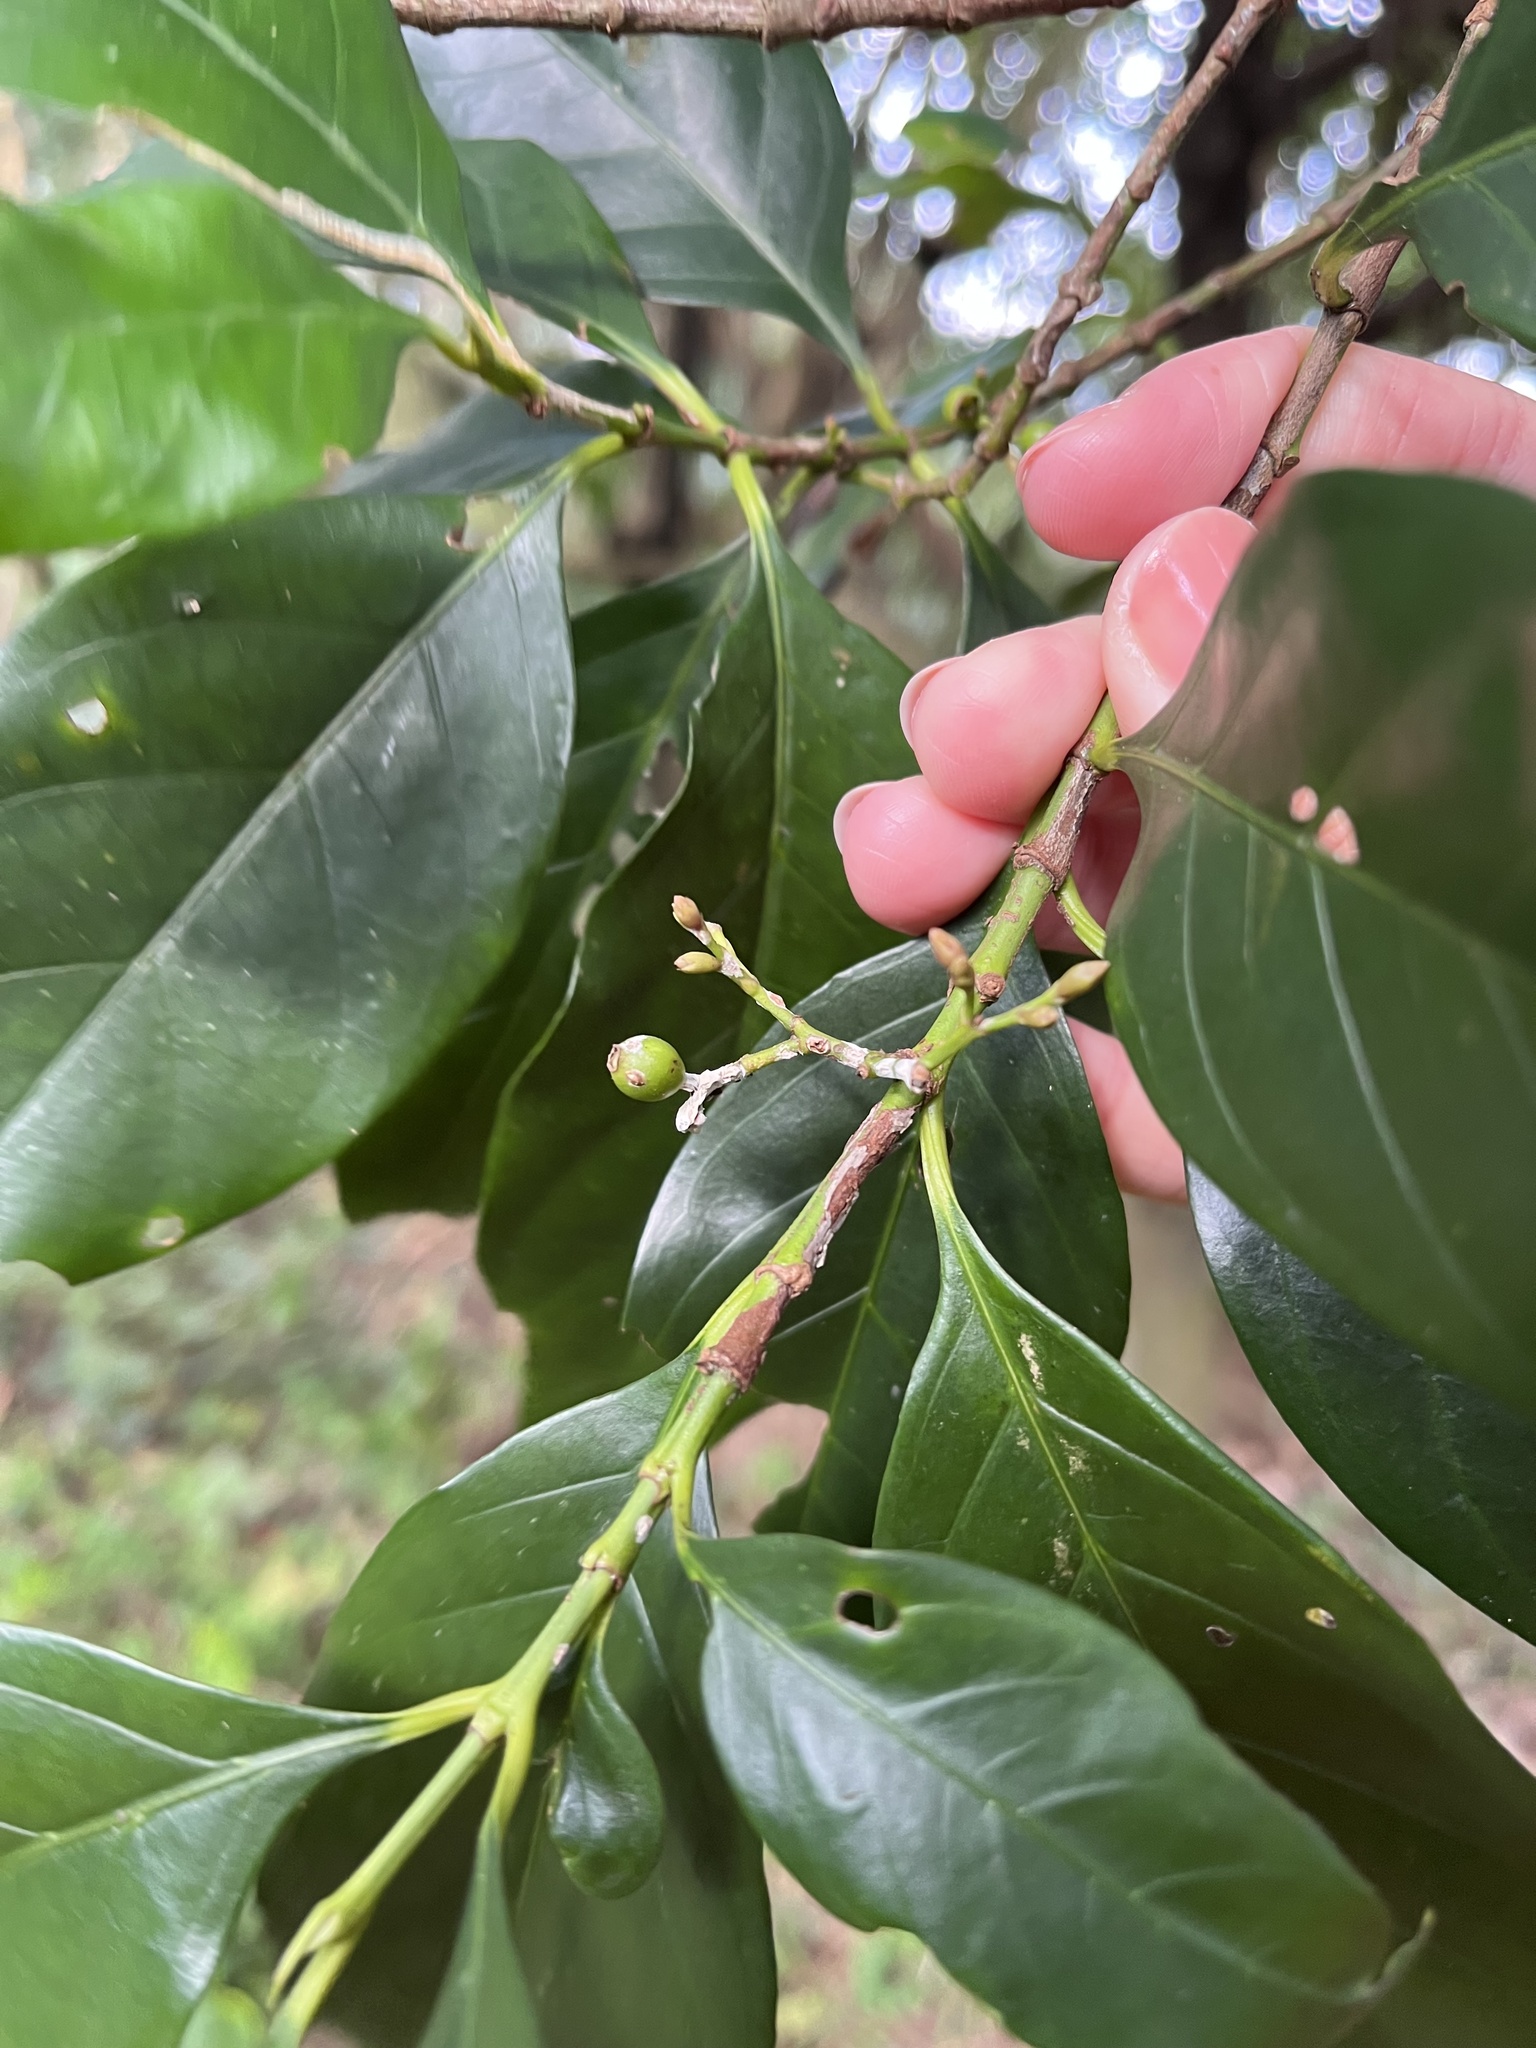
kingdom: Plantae
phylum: Tracheophyta
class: Magnoliopsida
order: Gentianales
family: Rubiaceae
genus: Aidia
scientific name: Aidia cochinchinensis
